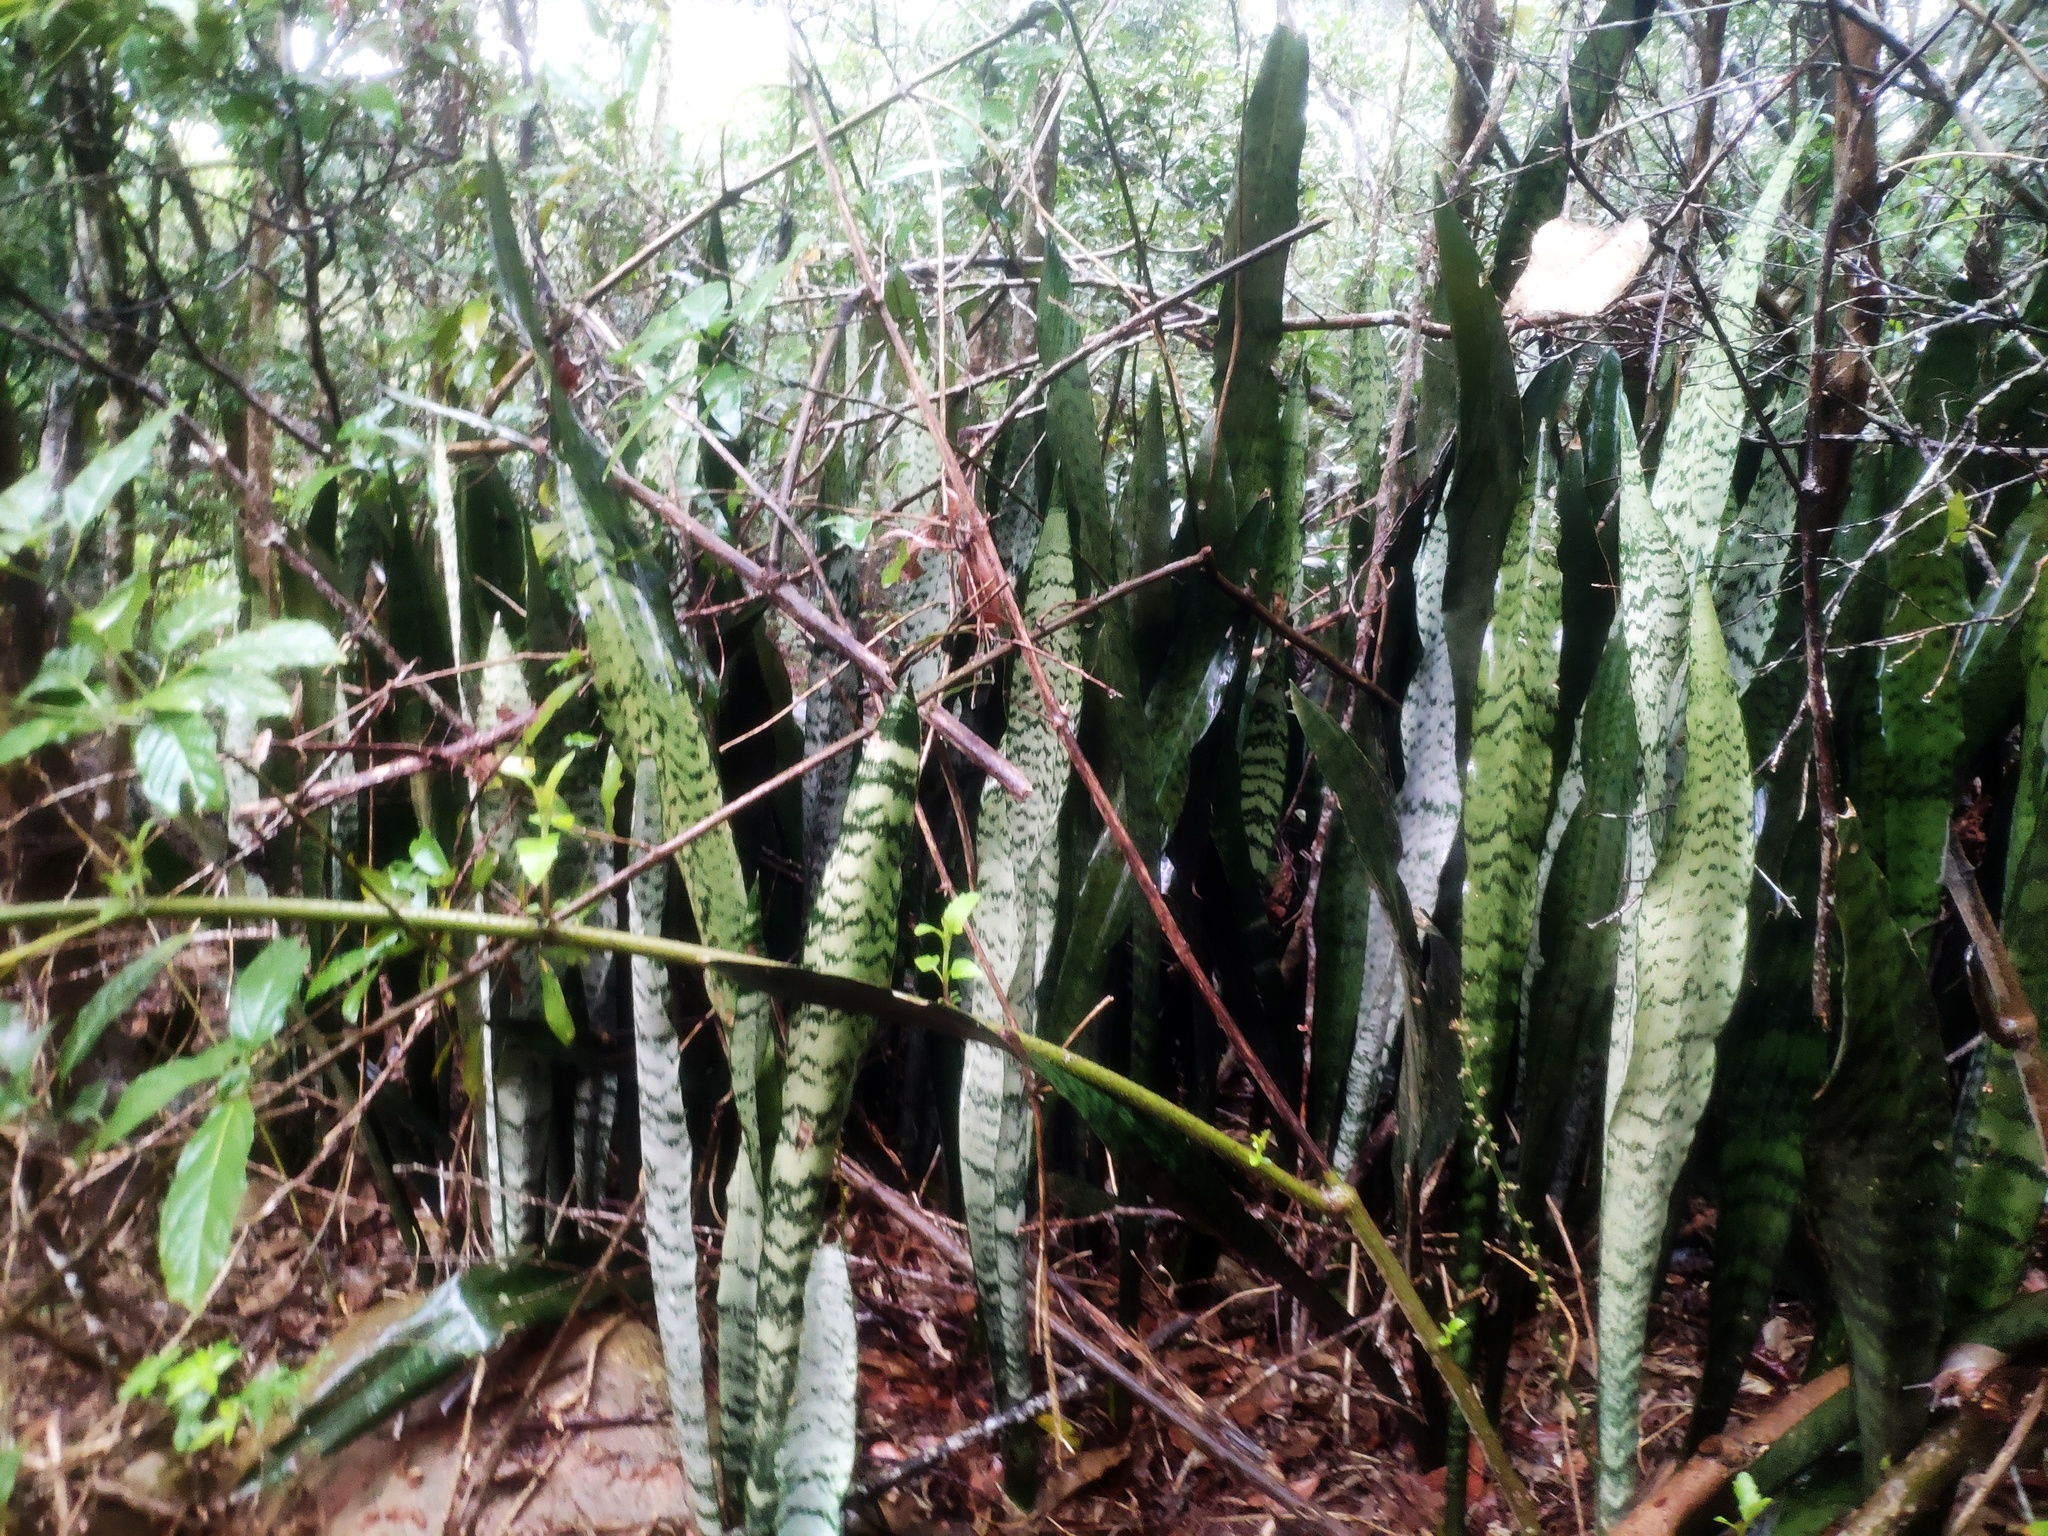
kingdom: Plantae
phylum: Tracheophyta
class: Liliopsida
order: Asparagales
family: Asparagaceae
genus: Dracaena
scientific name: Dracaena trifasciata
